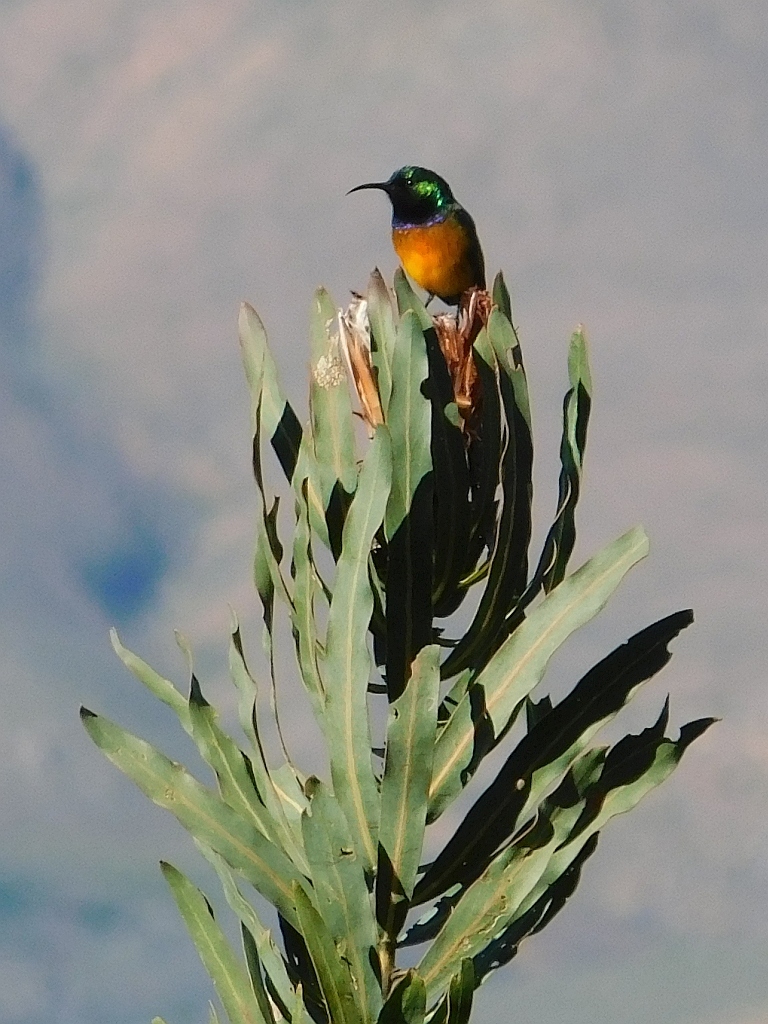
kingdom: Animalia
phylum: Chordata
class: Aves
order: Passeriformes
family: Nectariniidae
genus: Anthobaphes
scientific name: Anthobaphes violacea
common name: Orange-breasted sunbird
